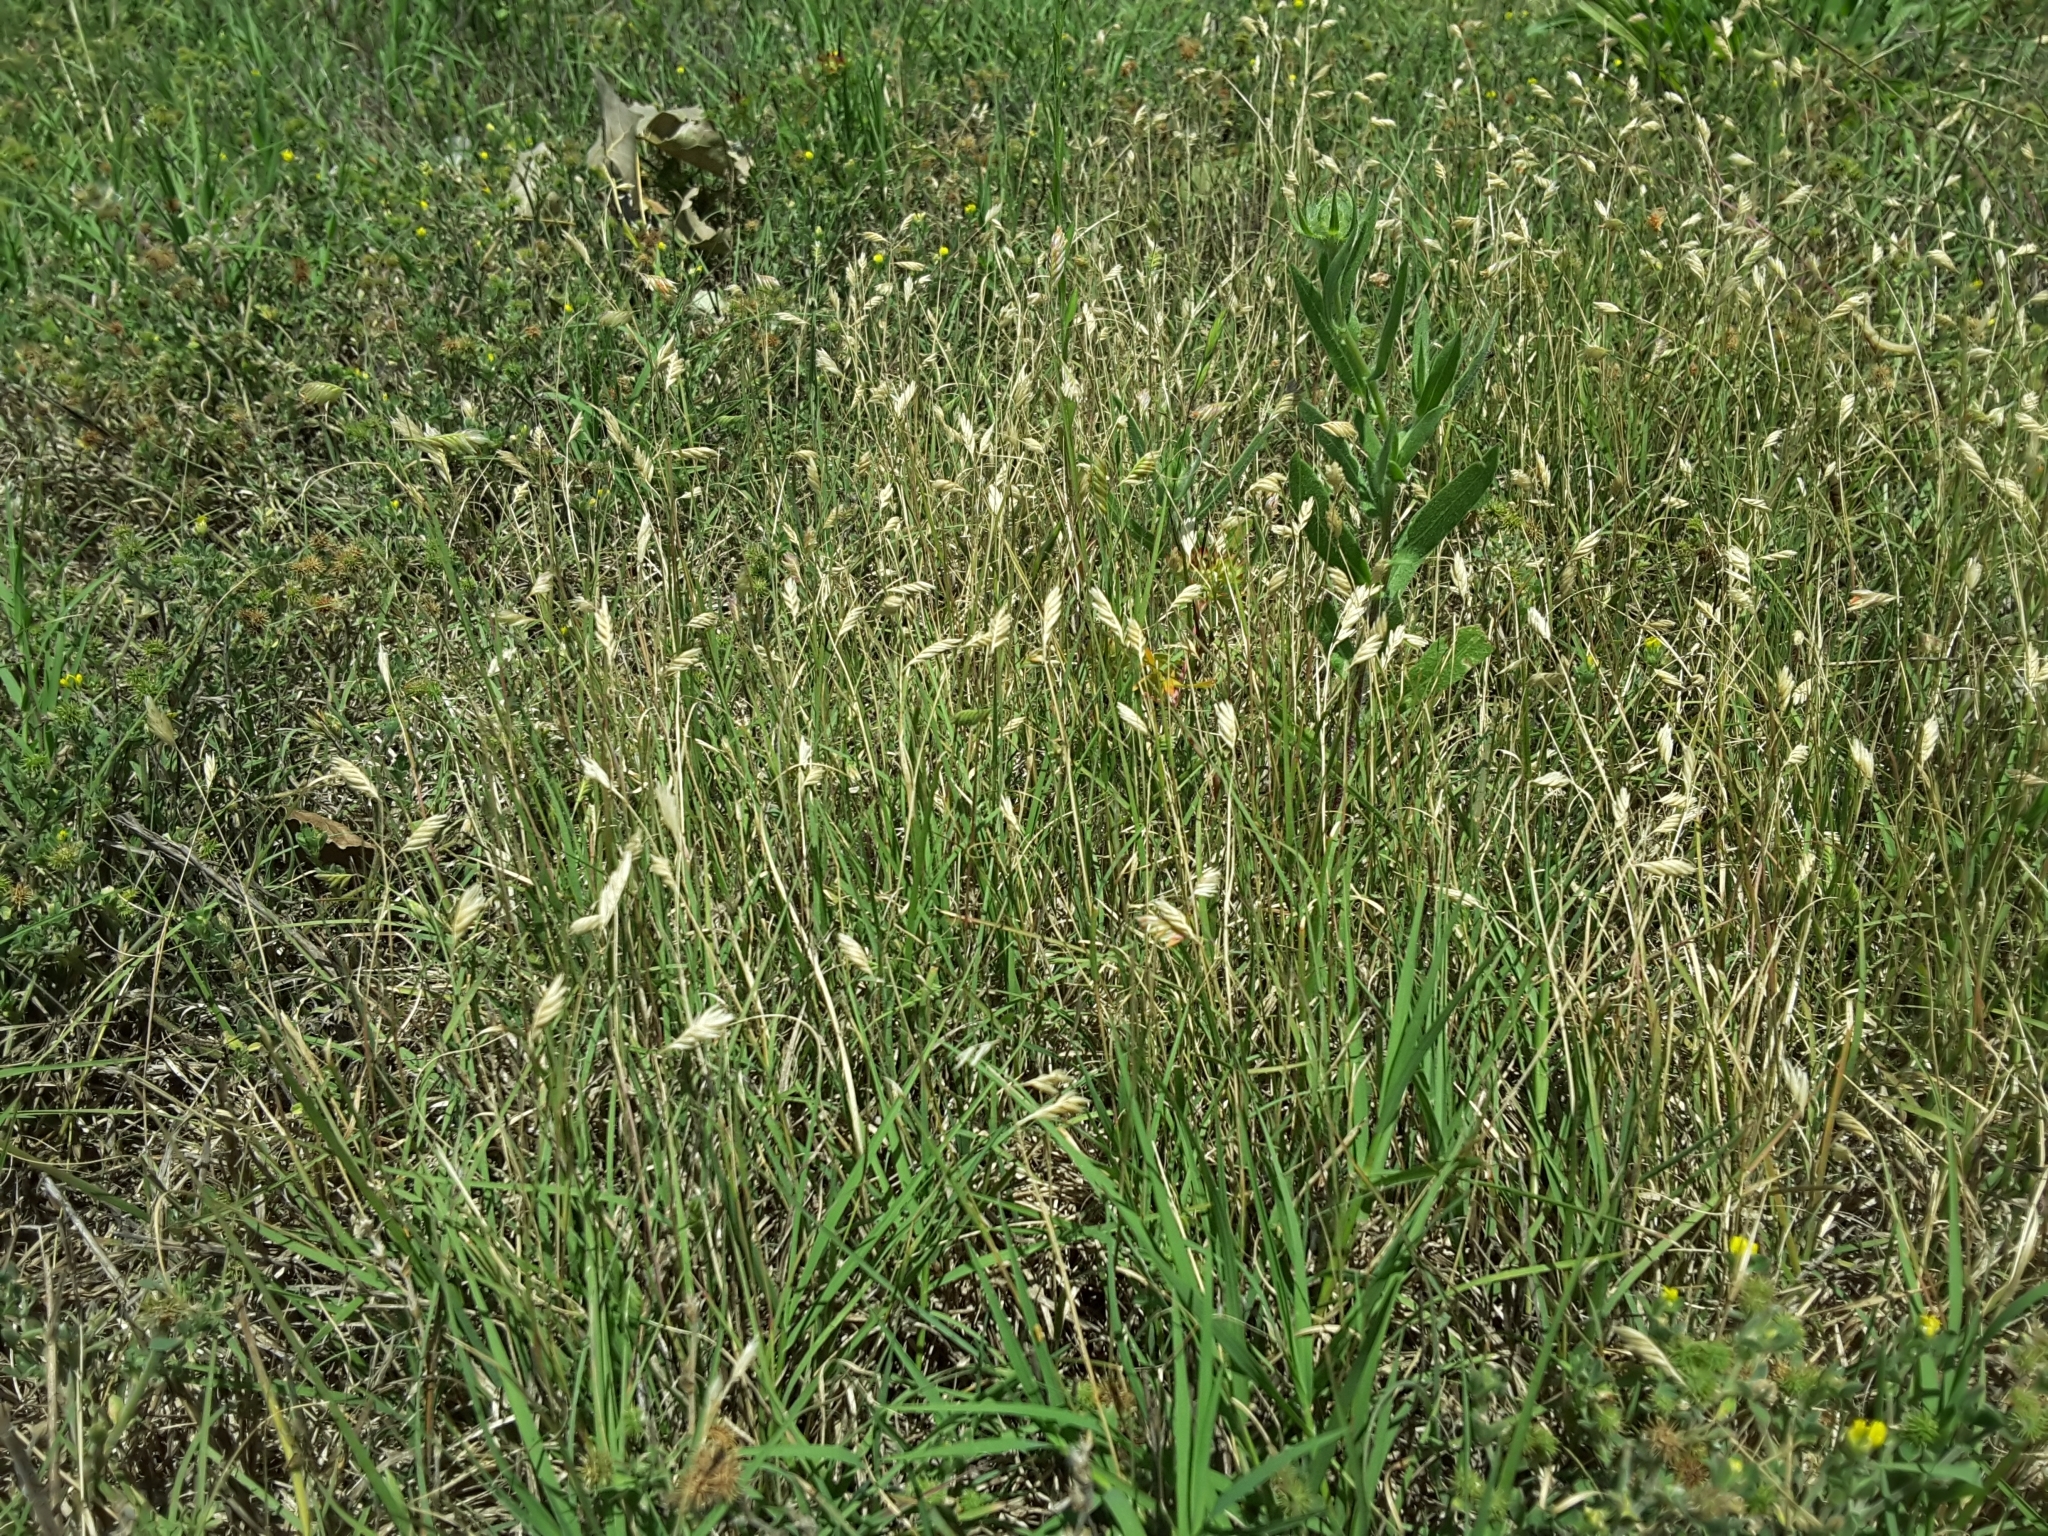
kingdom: Plantae
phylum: Tracheophyta
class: Liliopsida
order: Poales
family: Poaceae
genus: Bouteloua
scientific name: Bouteloua dactyloides
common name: Buffalo grass
